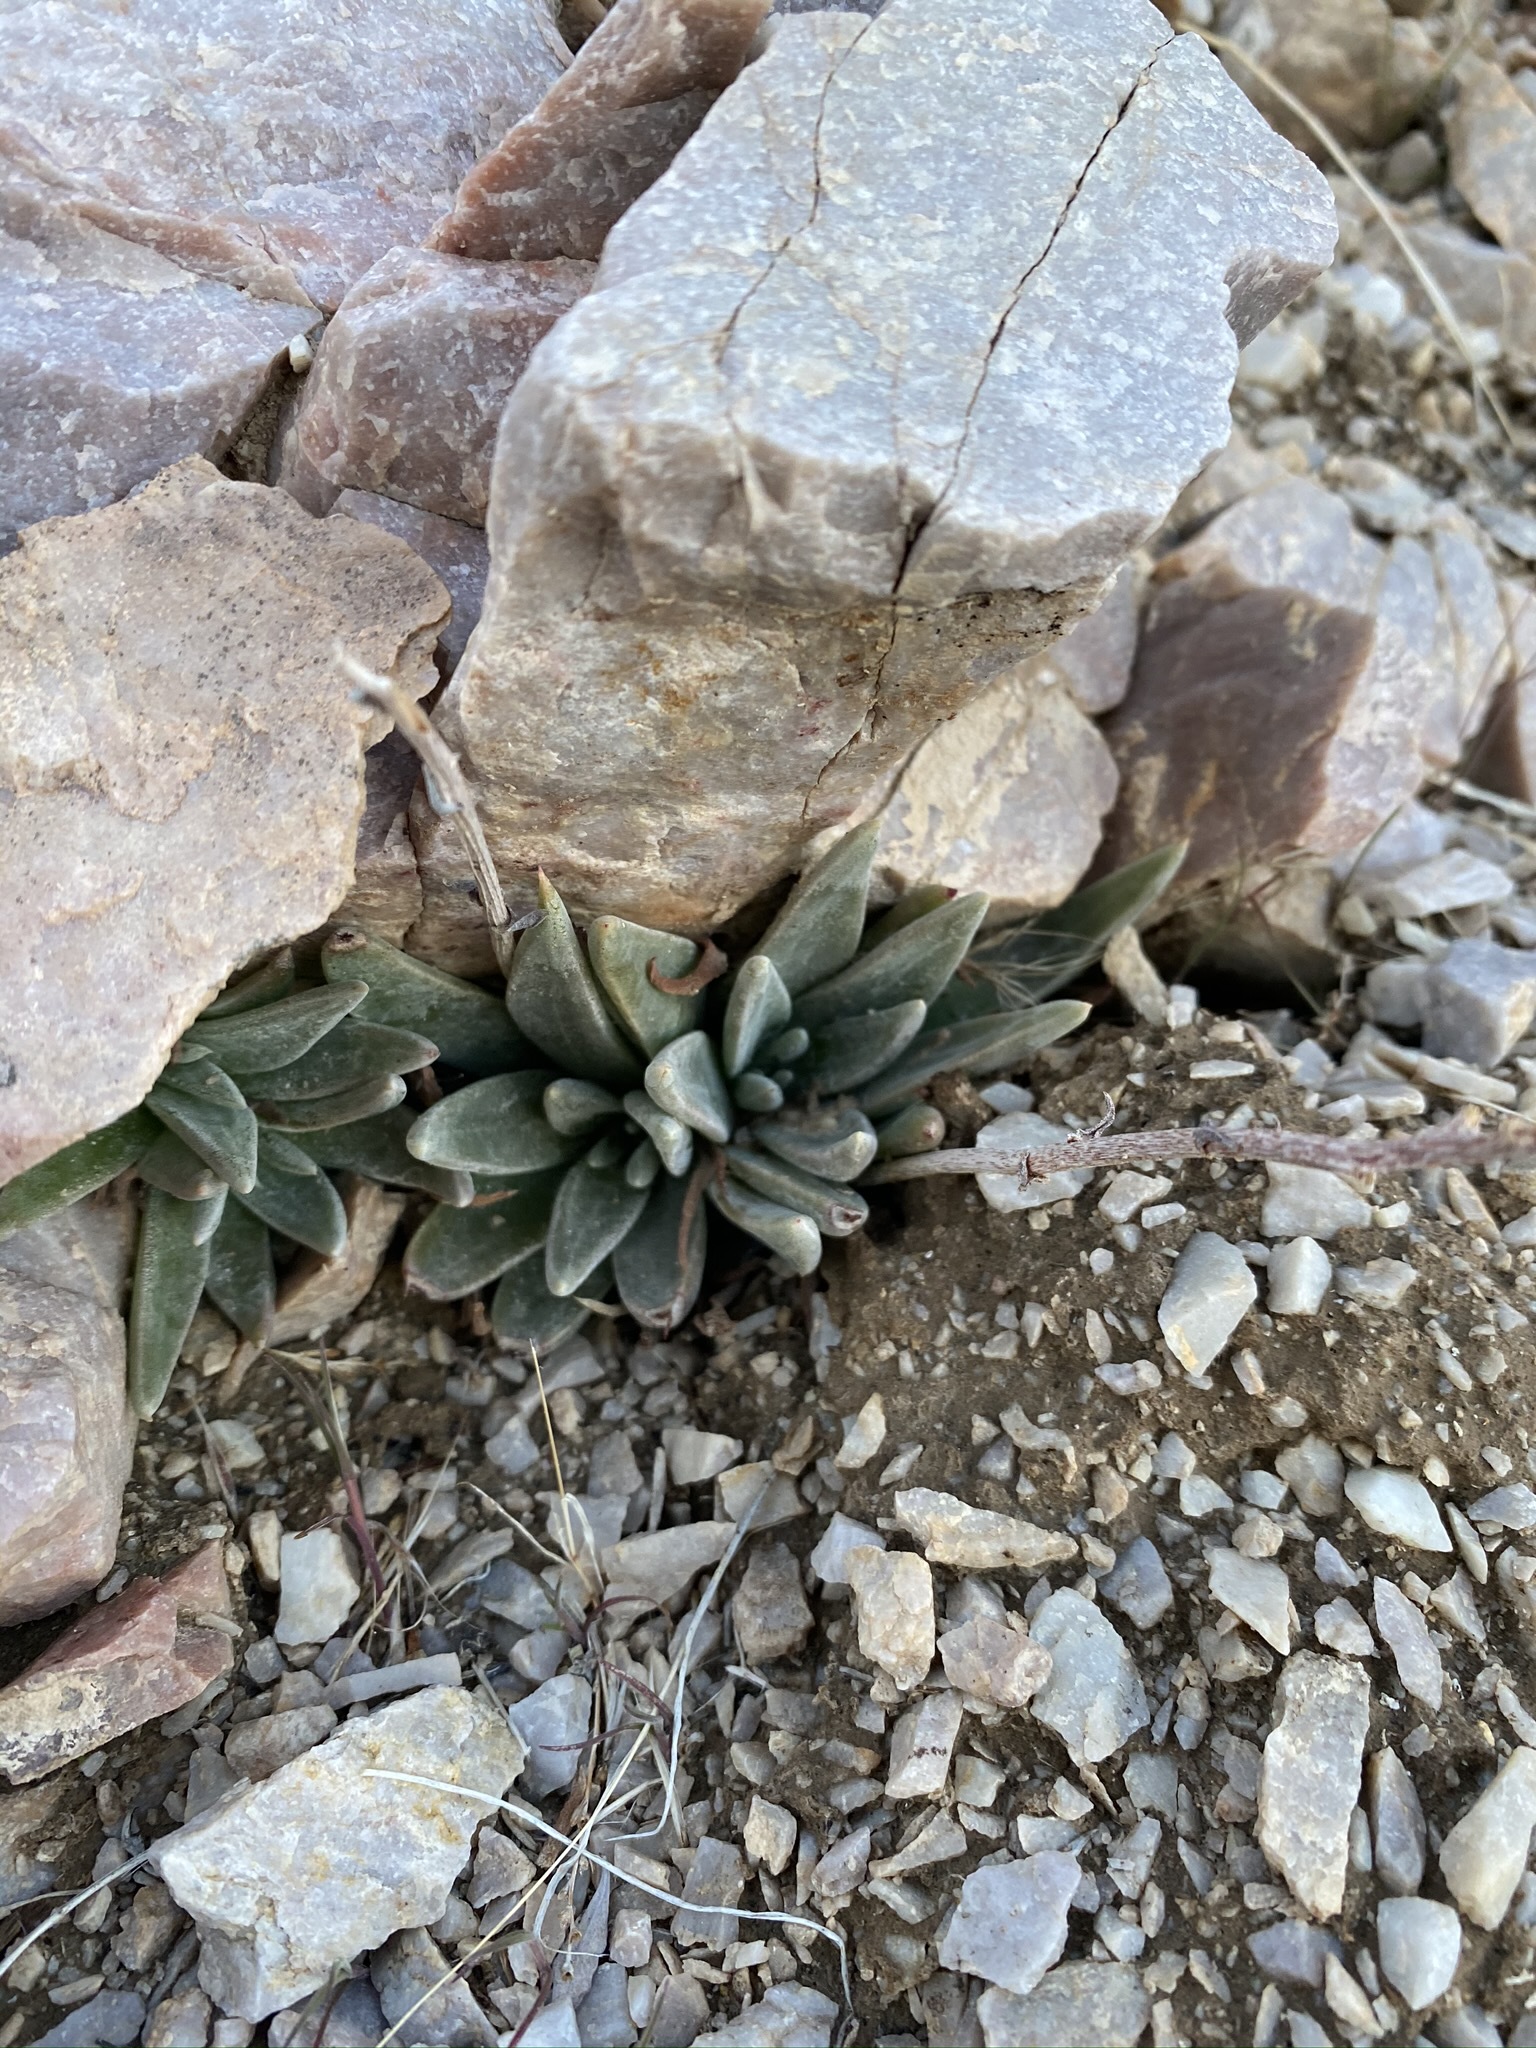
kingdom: Plantae
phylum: Tracheophyta
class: Magnoliopsida
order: Saxifragales
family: Crassulaceae
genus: Dudleya
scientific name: Dudleya saxosa
